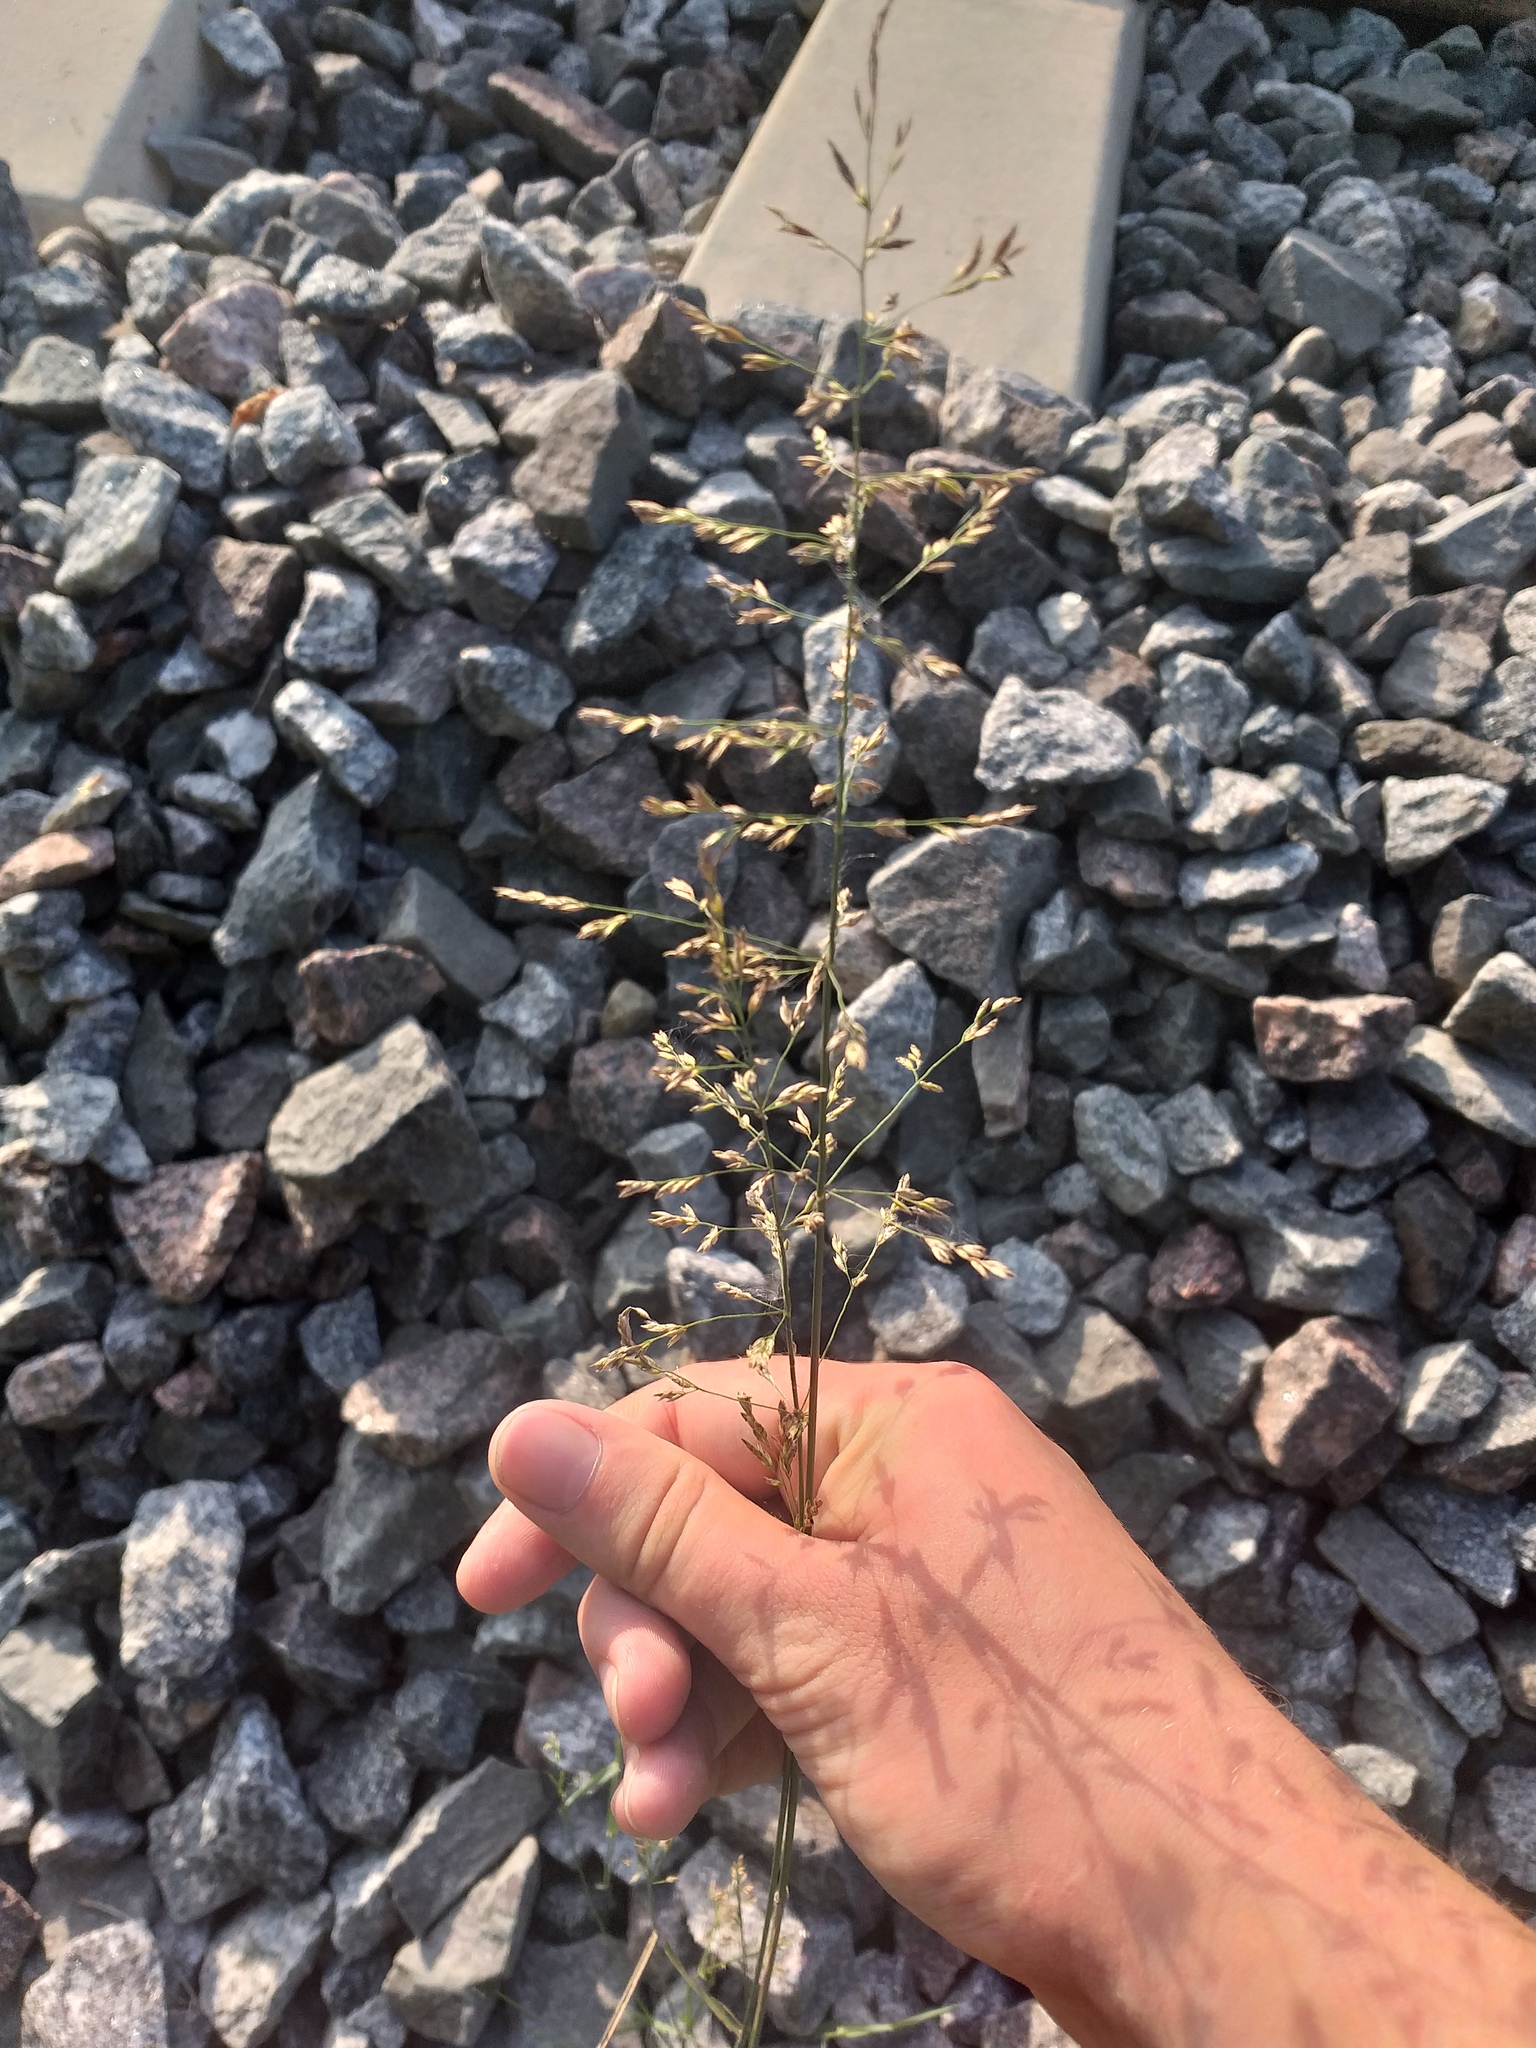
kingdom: Plantae
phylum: Tracheophyta
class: Liliopsida
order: Poales
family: Poaceae
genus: Poa
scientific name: Poa compressa
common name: Canada bluegrass
